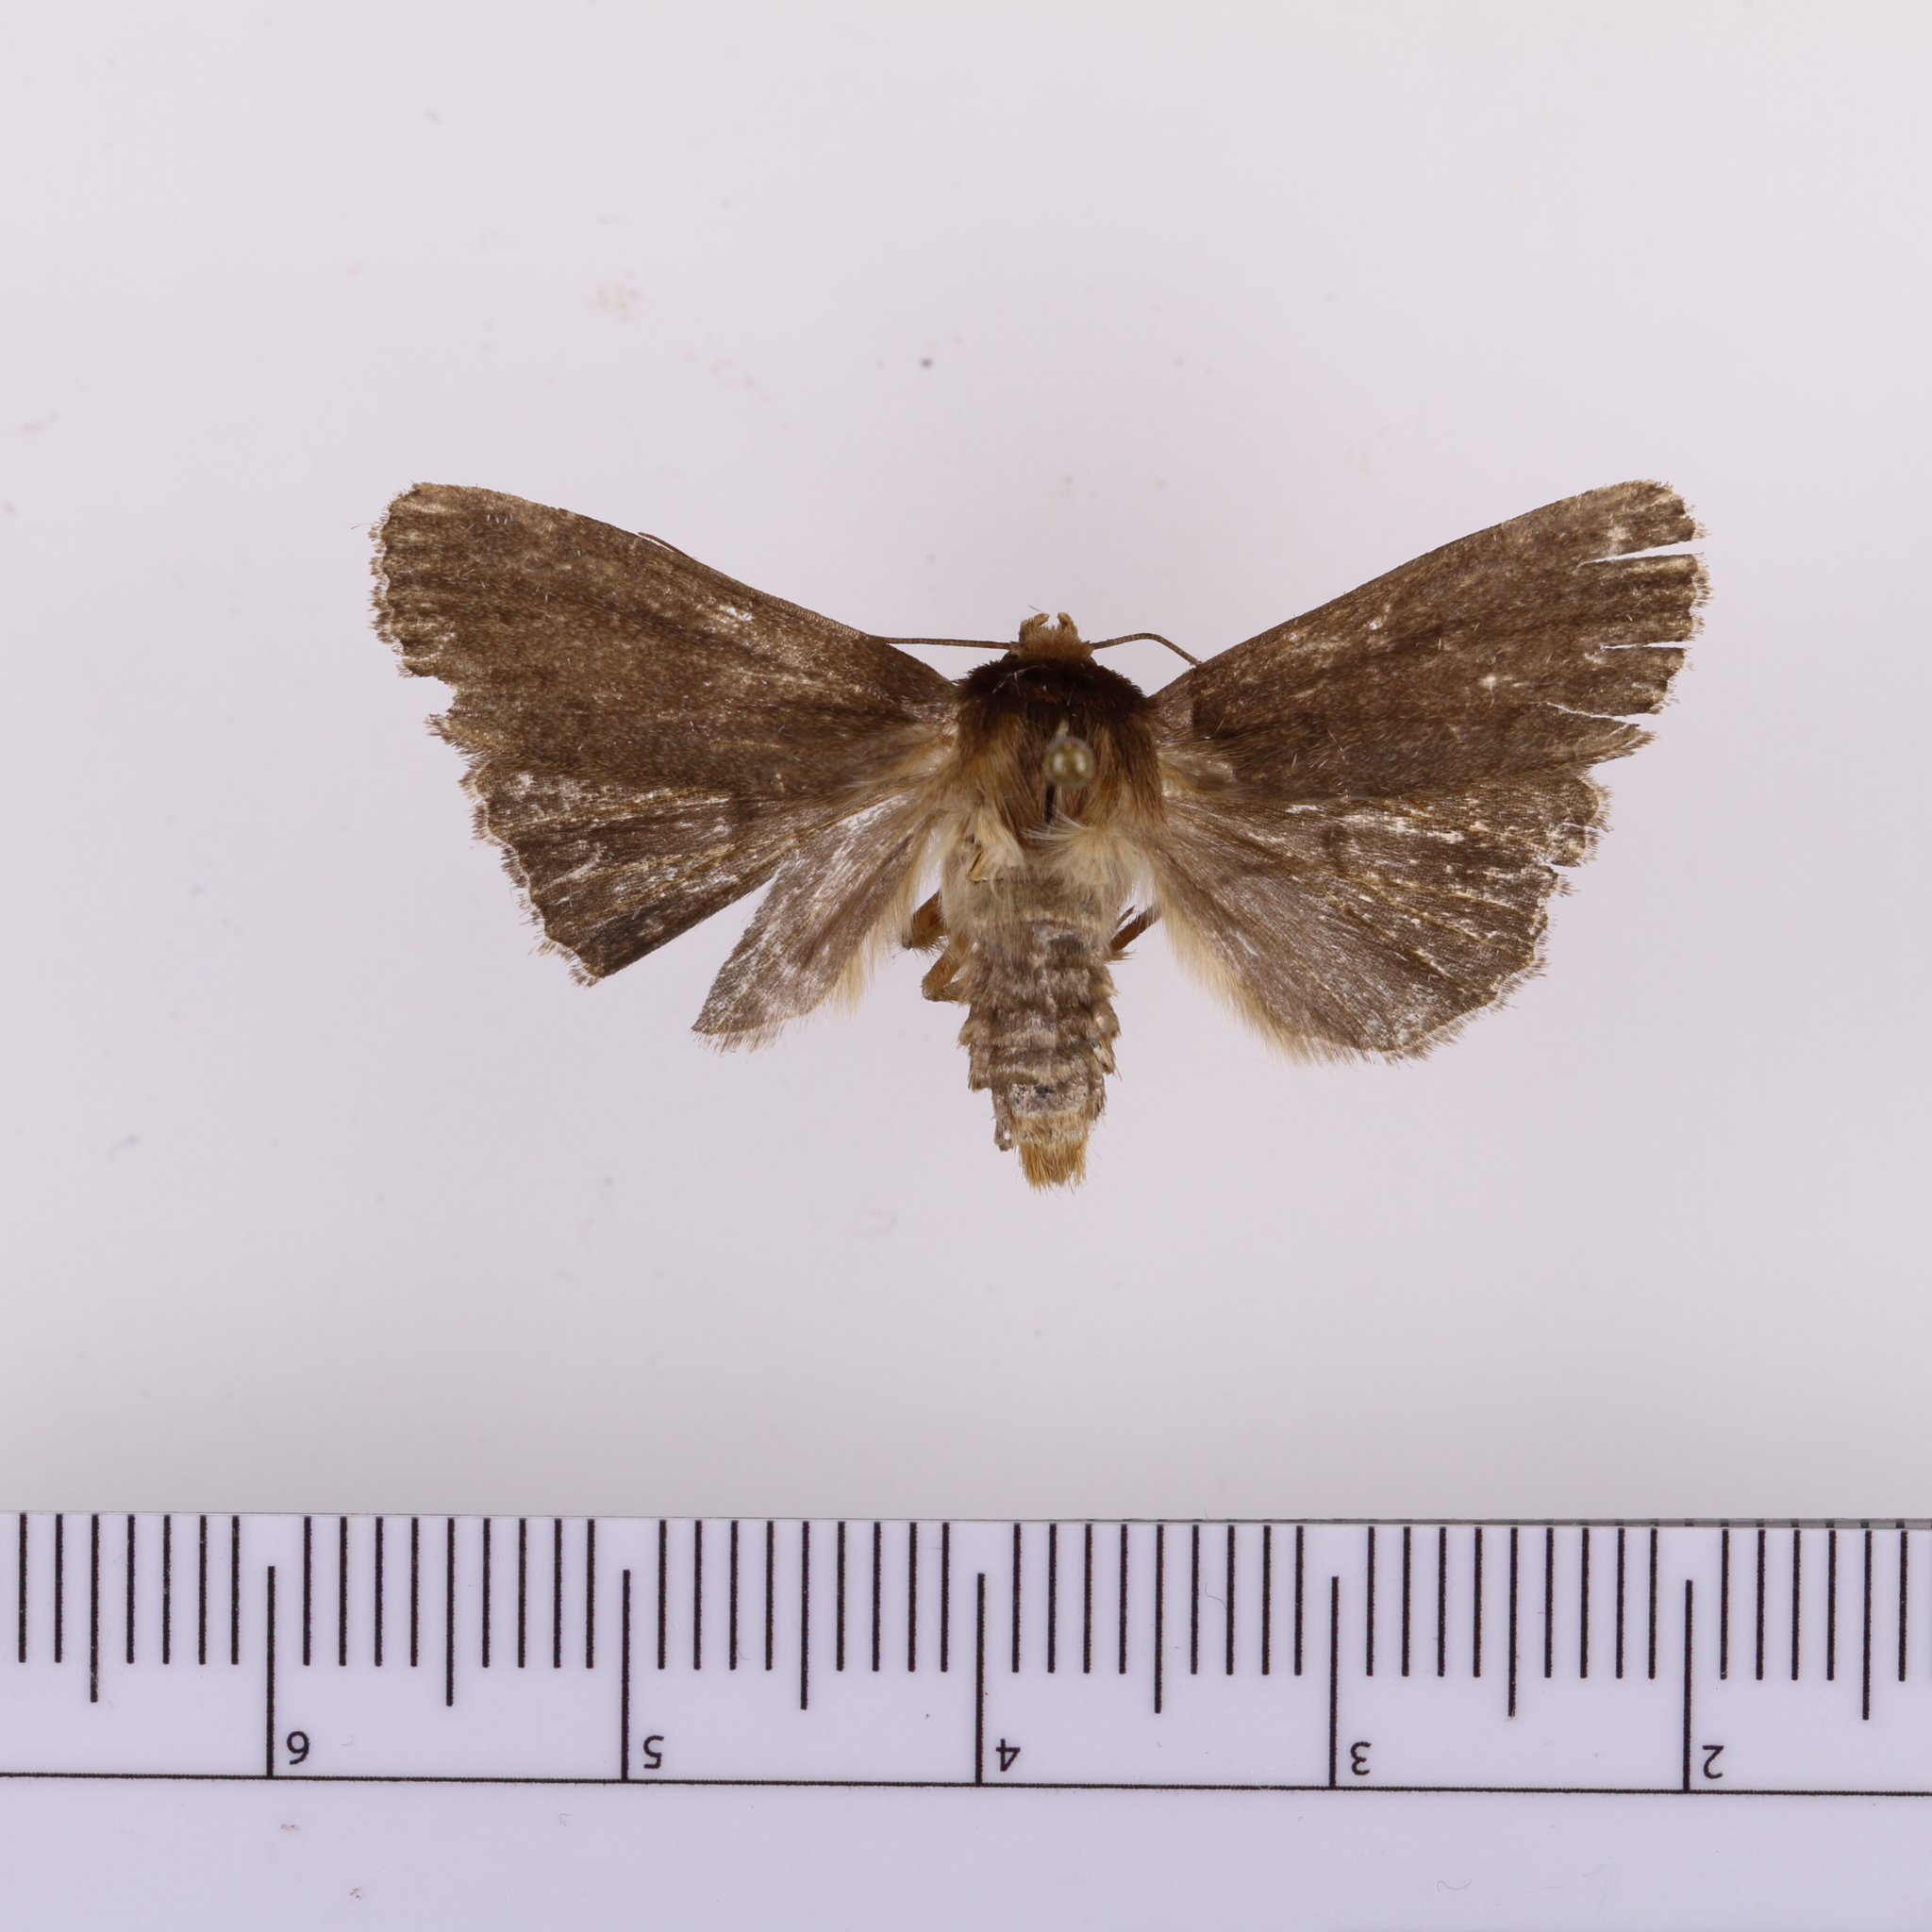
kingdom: Animalia
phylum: Arthropoda
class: Insecta
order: Lepidoptera
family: Noctuidae
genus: Bityla
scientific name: Bityla defigurata
